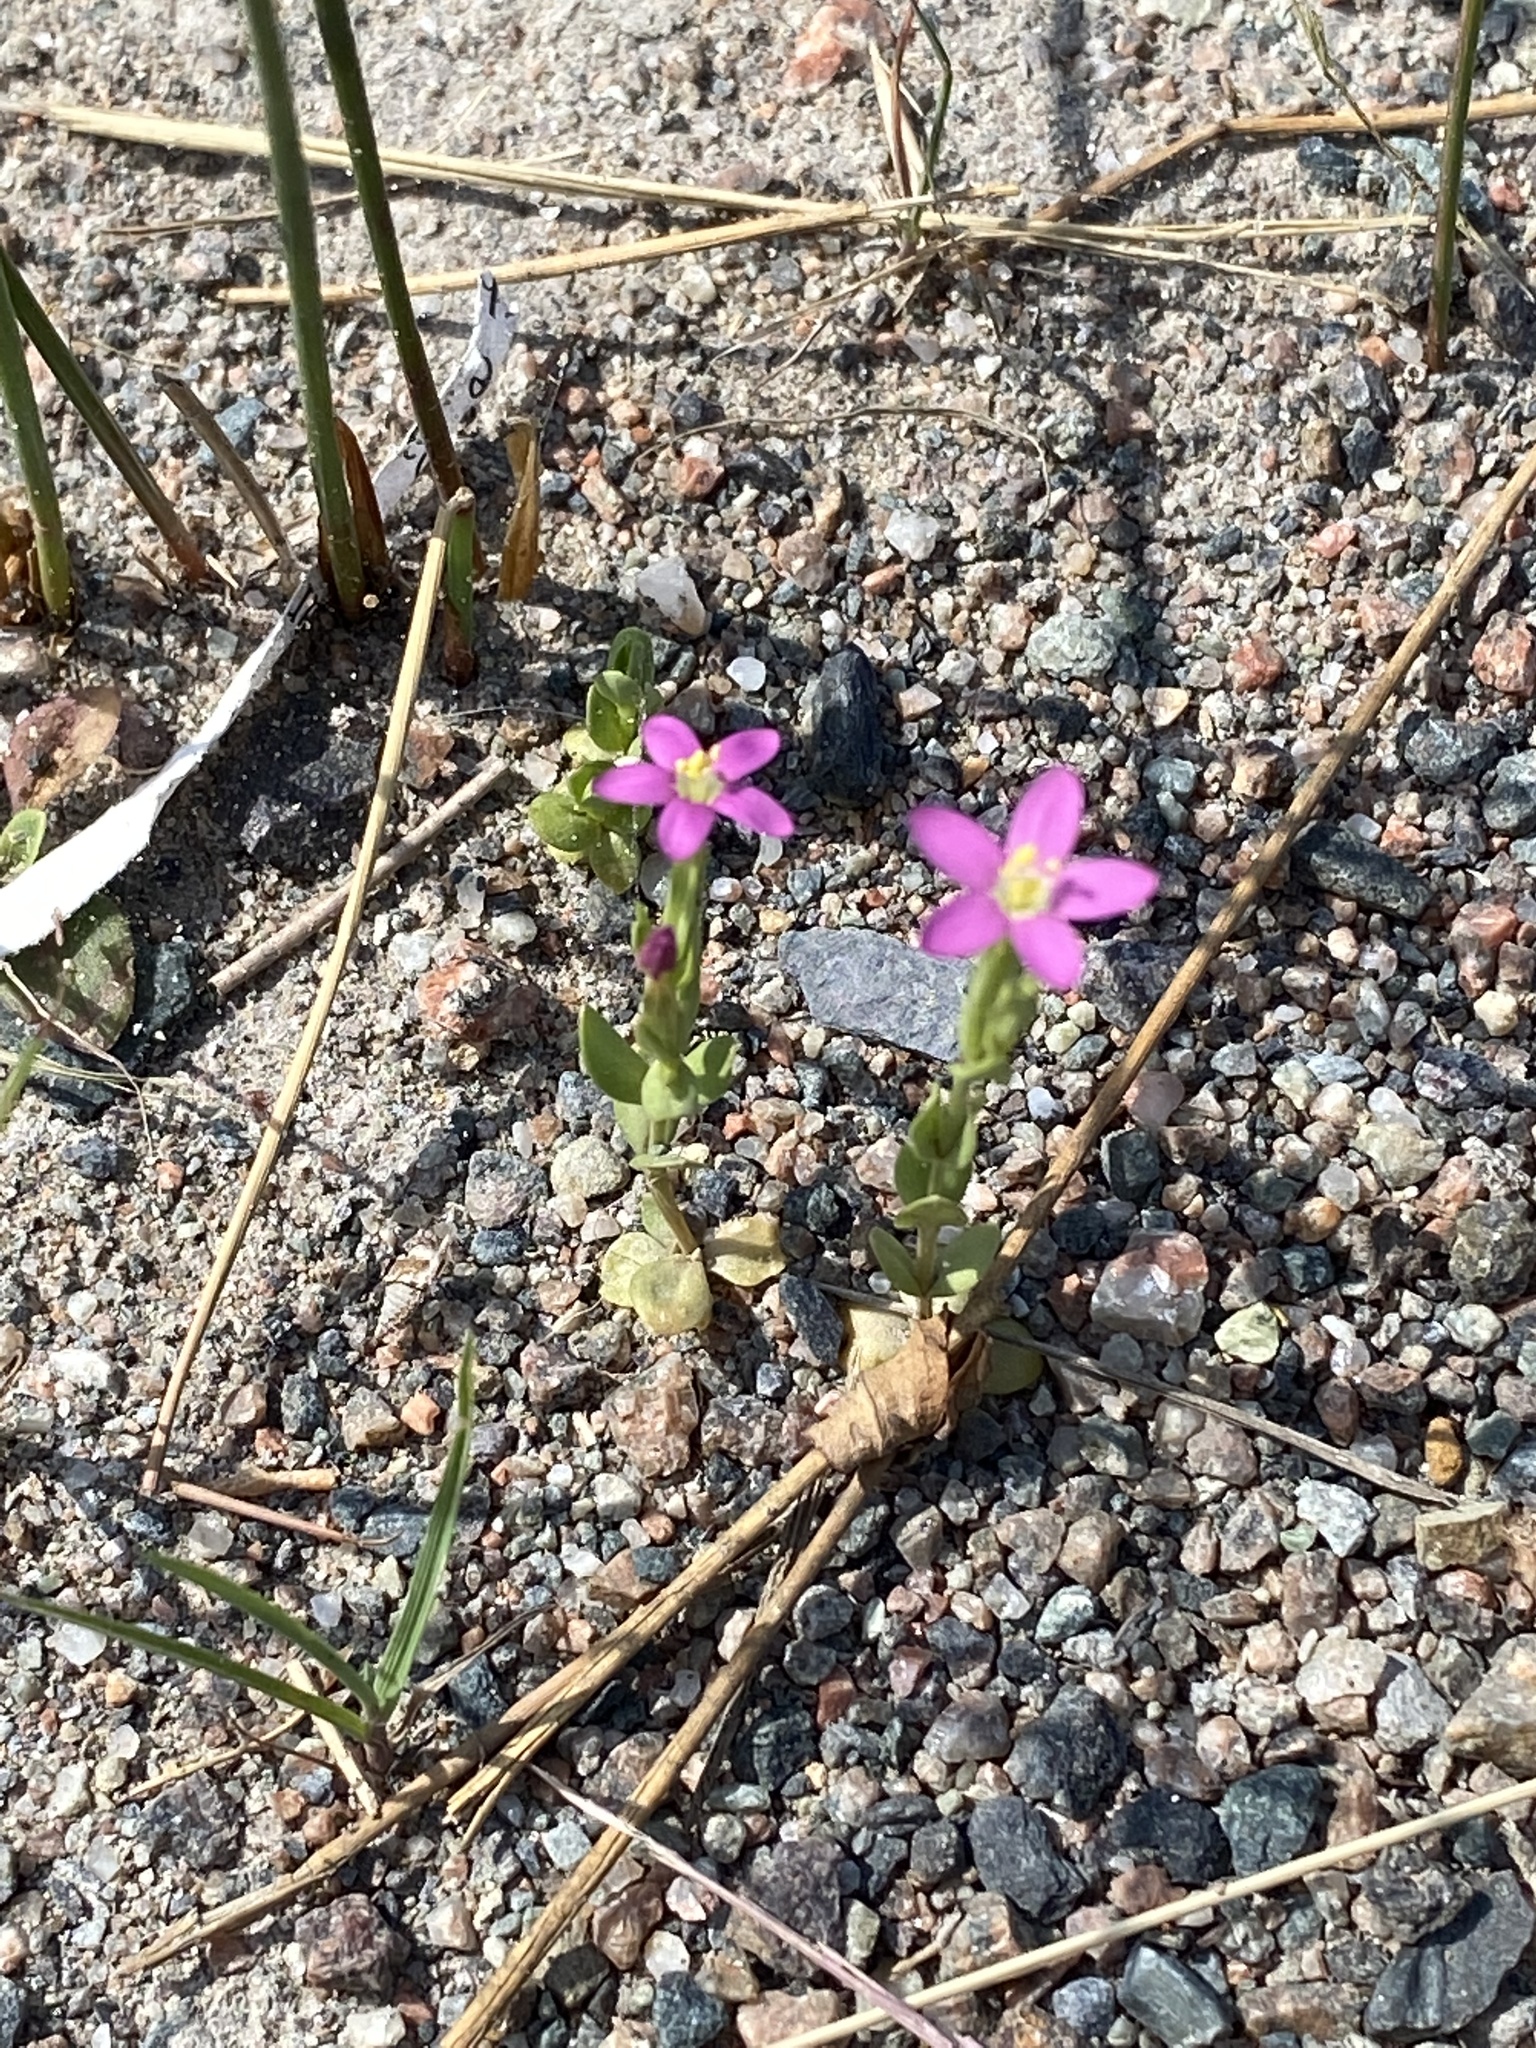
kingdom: Plantae
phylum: Tracheophyta
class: Magnoliopsida
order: Gentianales
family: Gentianaceae
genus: Centaurium
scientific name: Centaurium pulchellum
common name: Lesser centaury
